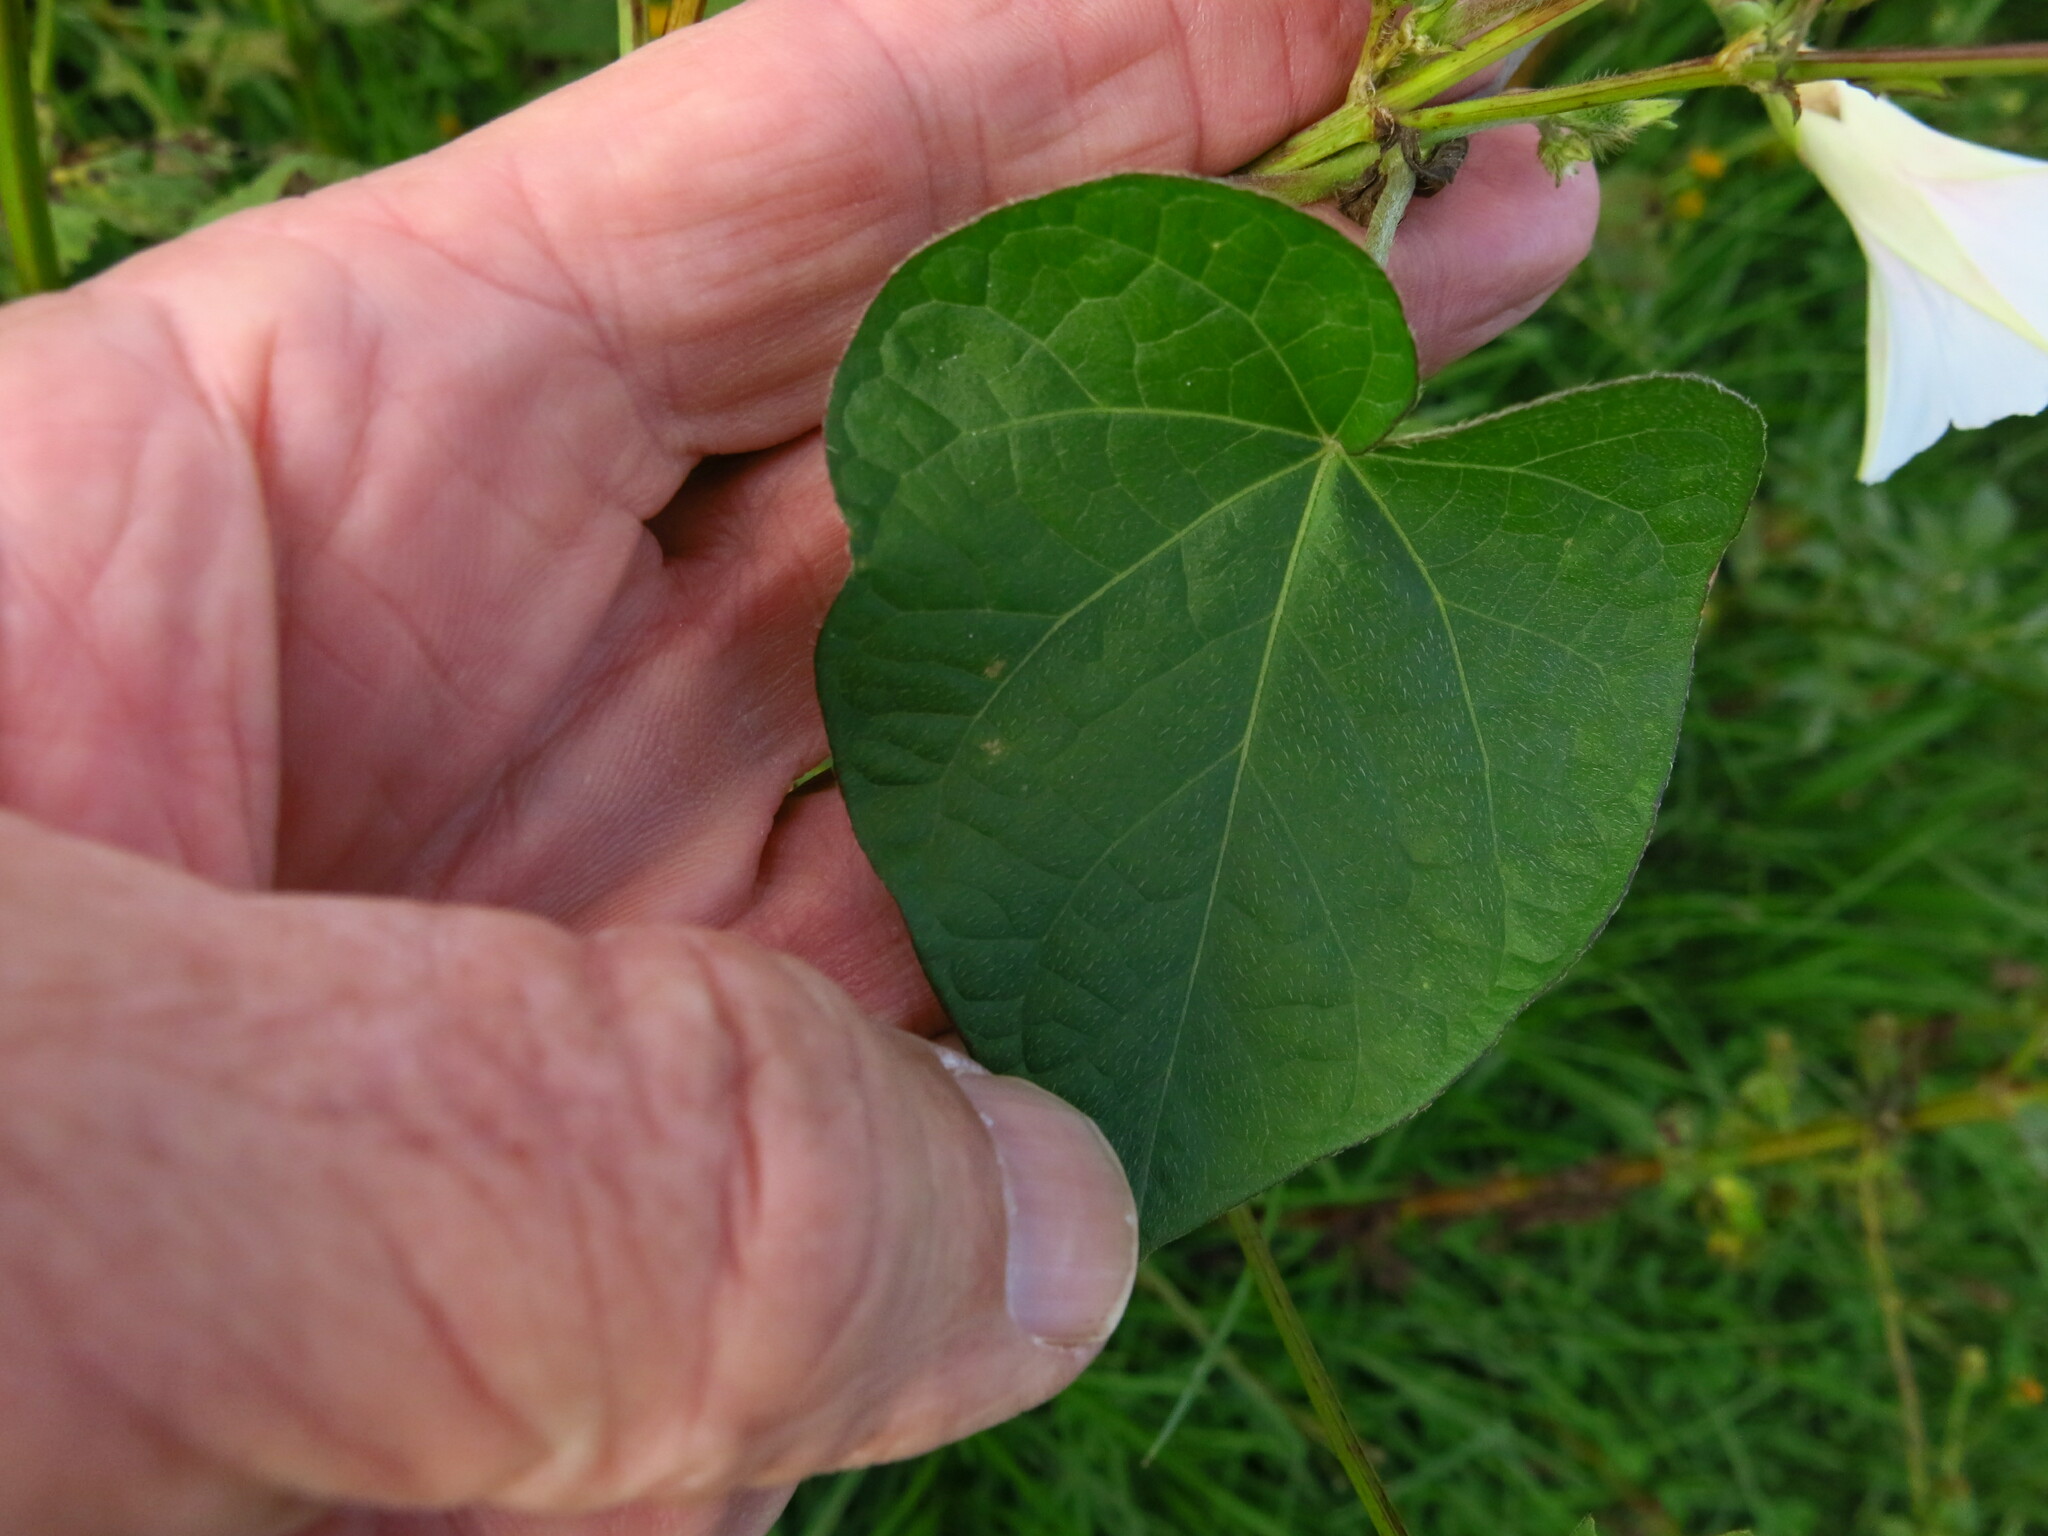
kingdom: Plantae
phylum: Tracheophyta
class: Magnoliopsida
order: Solanales
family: Convolvulaceae
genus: Ipomoea
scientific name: Ipomoea purpurea
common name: Common morning-glory
